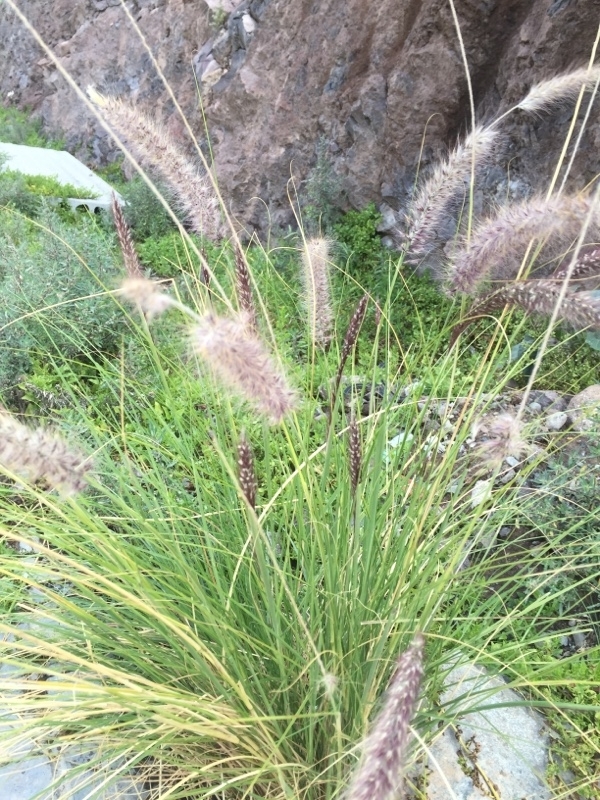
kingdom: Plantae
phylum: Tracheophyta
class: Liliopsida
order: Poales
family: Poaceae
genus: Cenchrus
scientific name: Cenchrus setaceus
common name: Crimson fountaingrass
